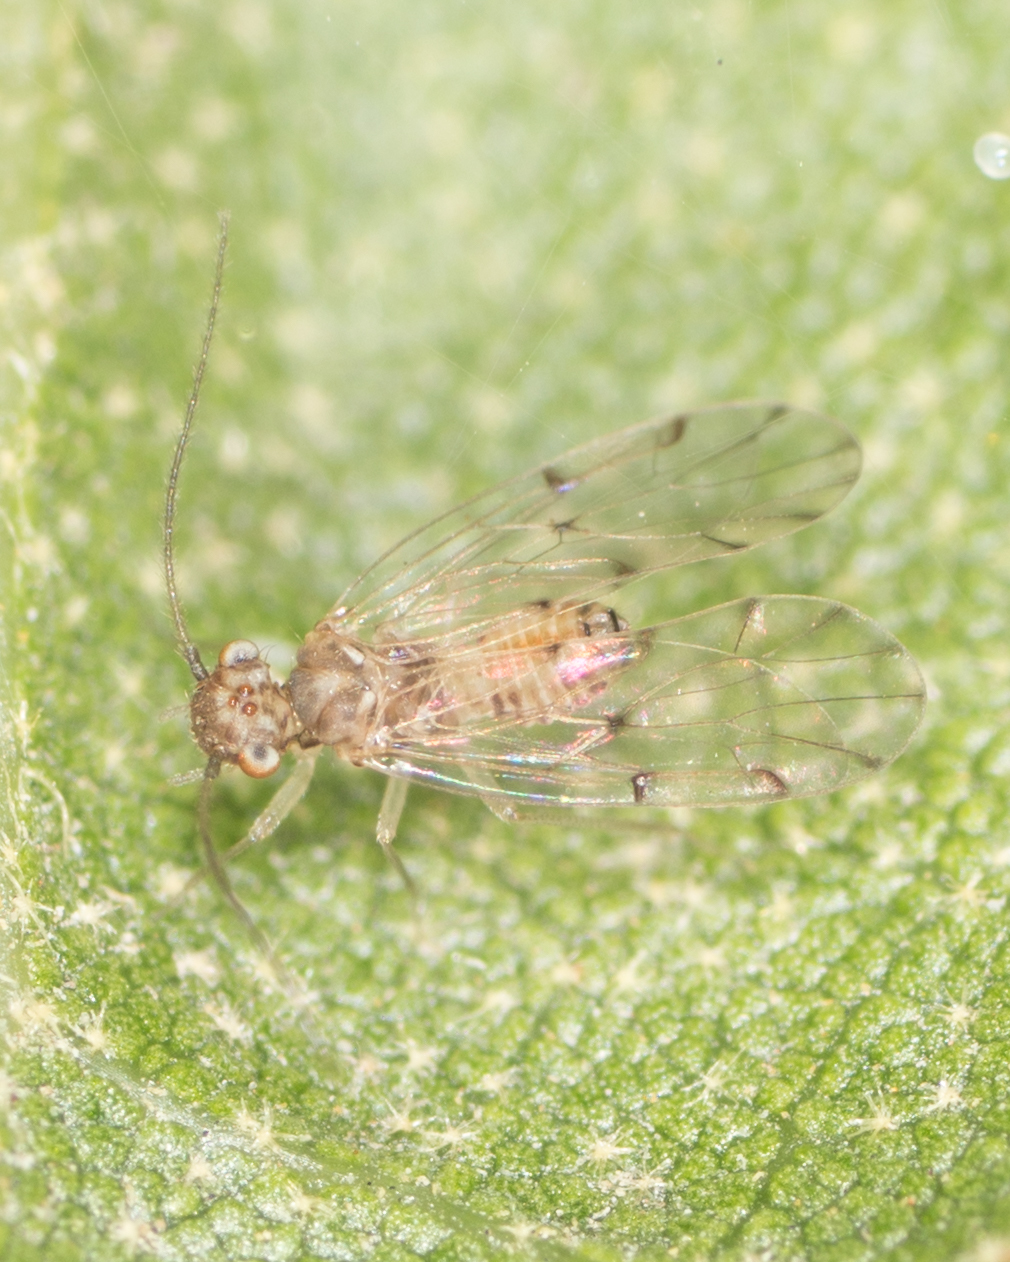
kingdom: Animalia
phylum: Arthropoda
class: Insecta
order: Psocodea
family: Ectopsocidae
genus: Ectopsocus
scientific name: Ectopsocus californicus
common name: Bark lice
